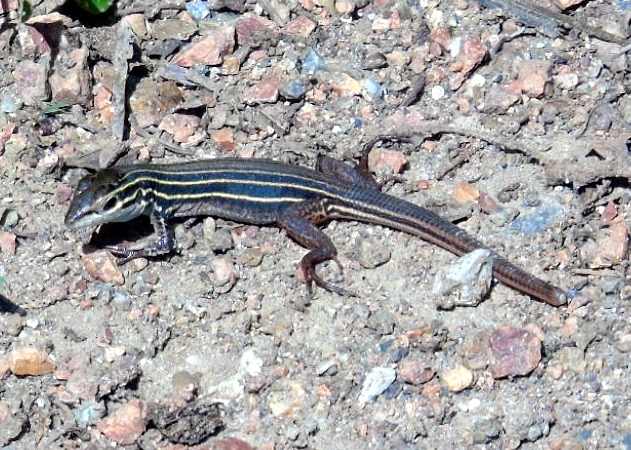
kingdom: Animalia
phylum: Chordata
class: Squamata
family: Teiidae
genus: Aspidoscelis
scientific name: Aspidoscelis costatus
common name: Western mexico whiptail
